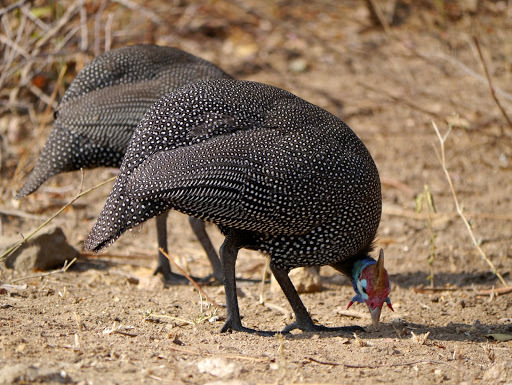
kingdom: Animalia
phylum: Chordata
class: Aves
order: Galliformes
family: Numididae
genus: Numida
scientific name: Numida meleagris
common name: Helmeted guineafowl
